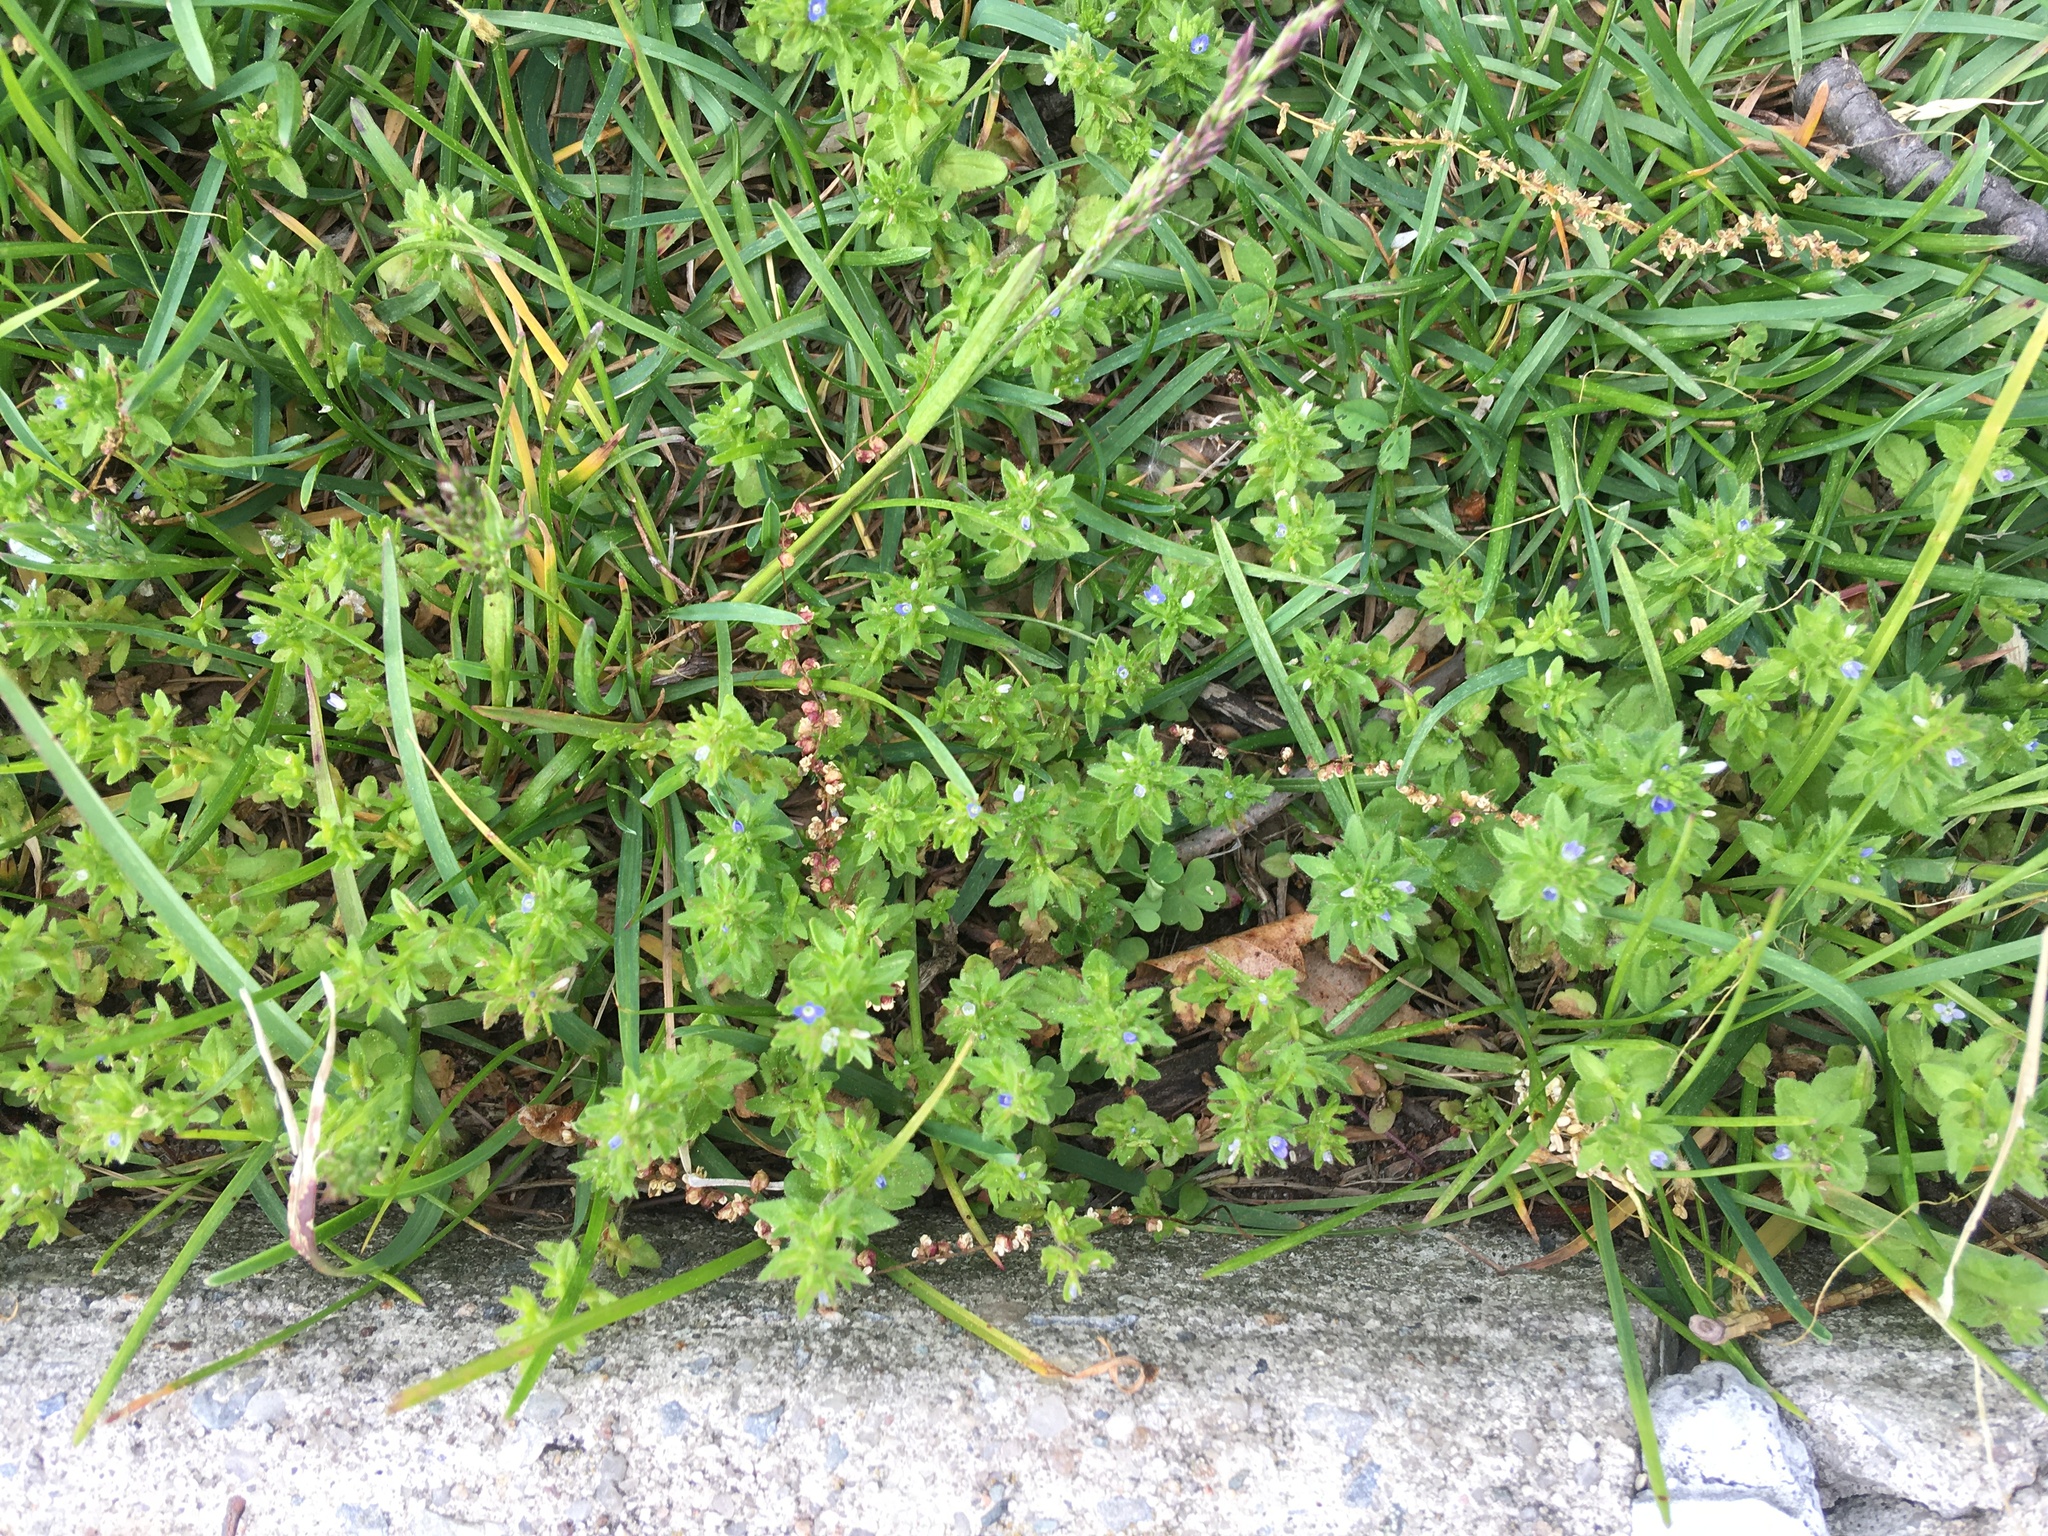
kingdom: Plantae
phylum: Tracheophyta
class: Magnoliopsida
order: Lamiales
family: Plantaginaceae
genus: Veronica
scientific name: Veronica arvensis
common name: Corn speedwell
